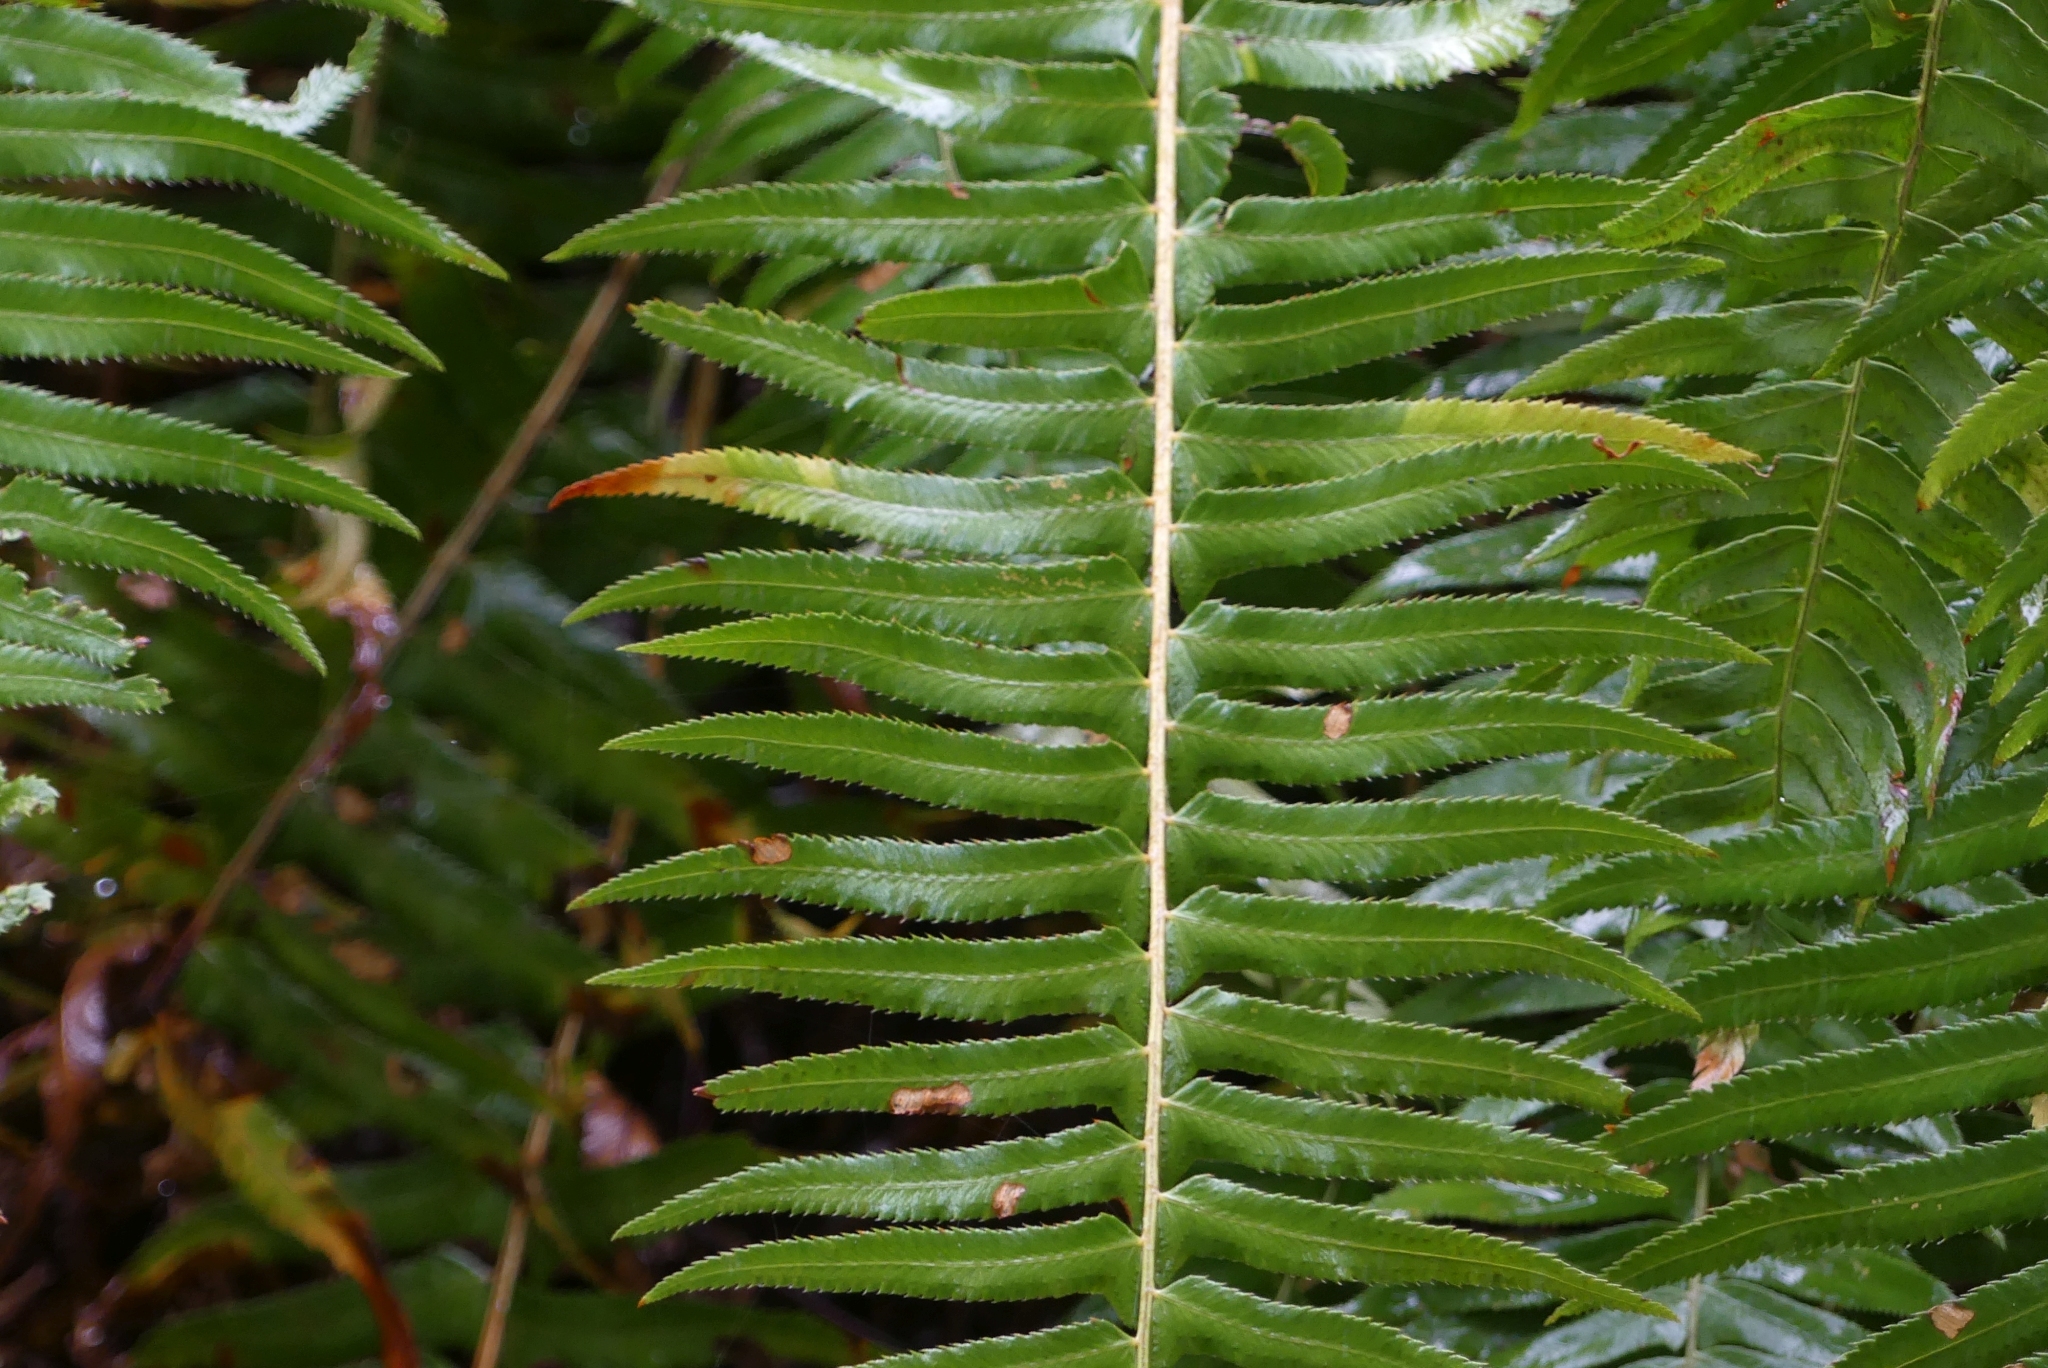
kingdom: Plantae
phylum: Tracheophyta
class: Polypodiopsida
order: Polypodiales
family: Dryopteridaceae
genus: Polystichum
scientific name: Polystichum munitum
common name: Western sword-fern
